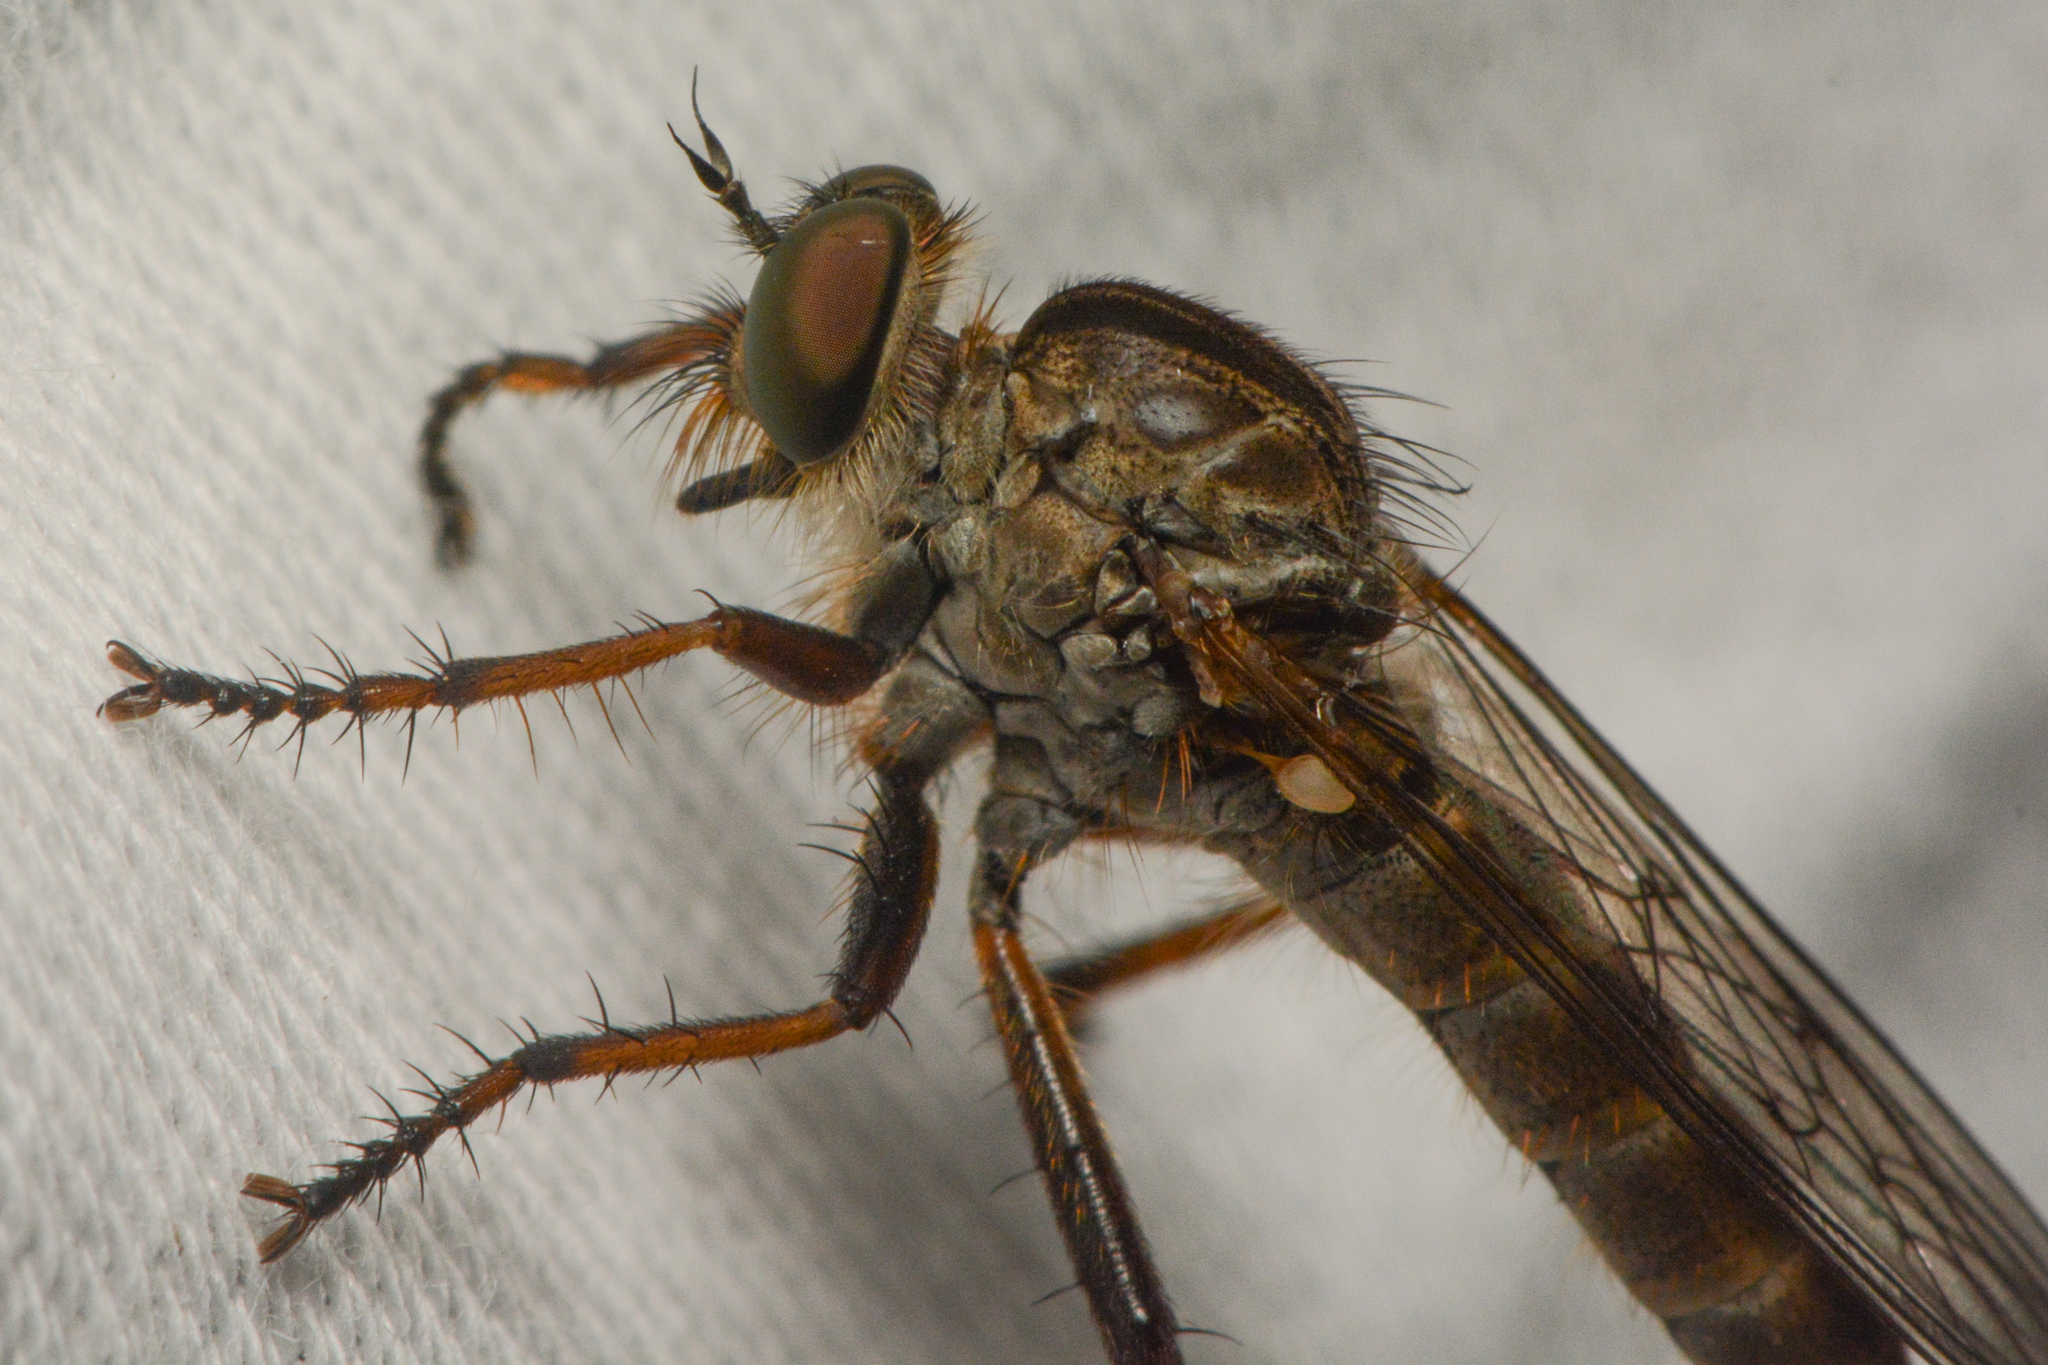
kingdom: Animalia
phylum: Arthropoda
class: Insecta
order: Diptera
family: Asilidae
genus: Neomochtherus
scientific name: Neomochtherus willistoni
